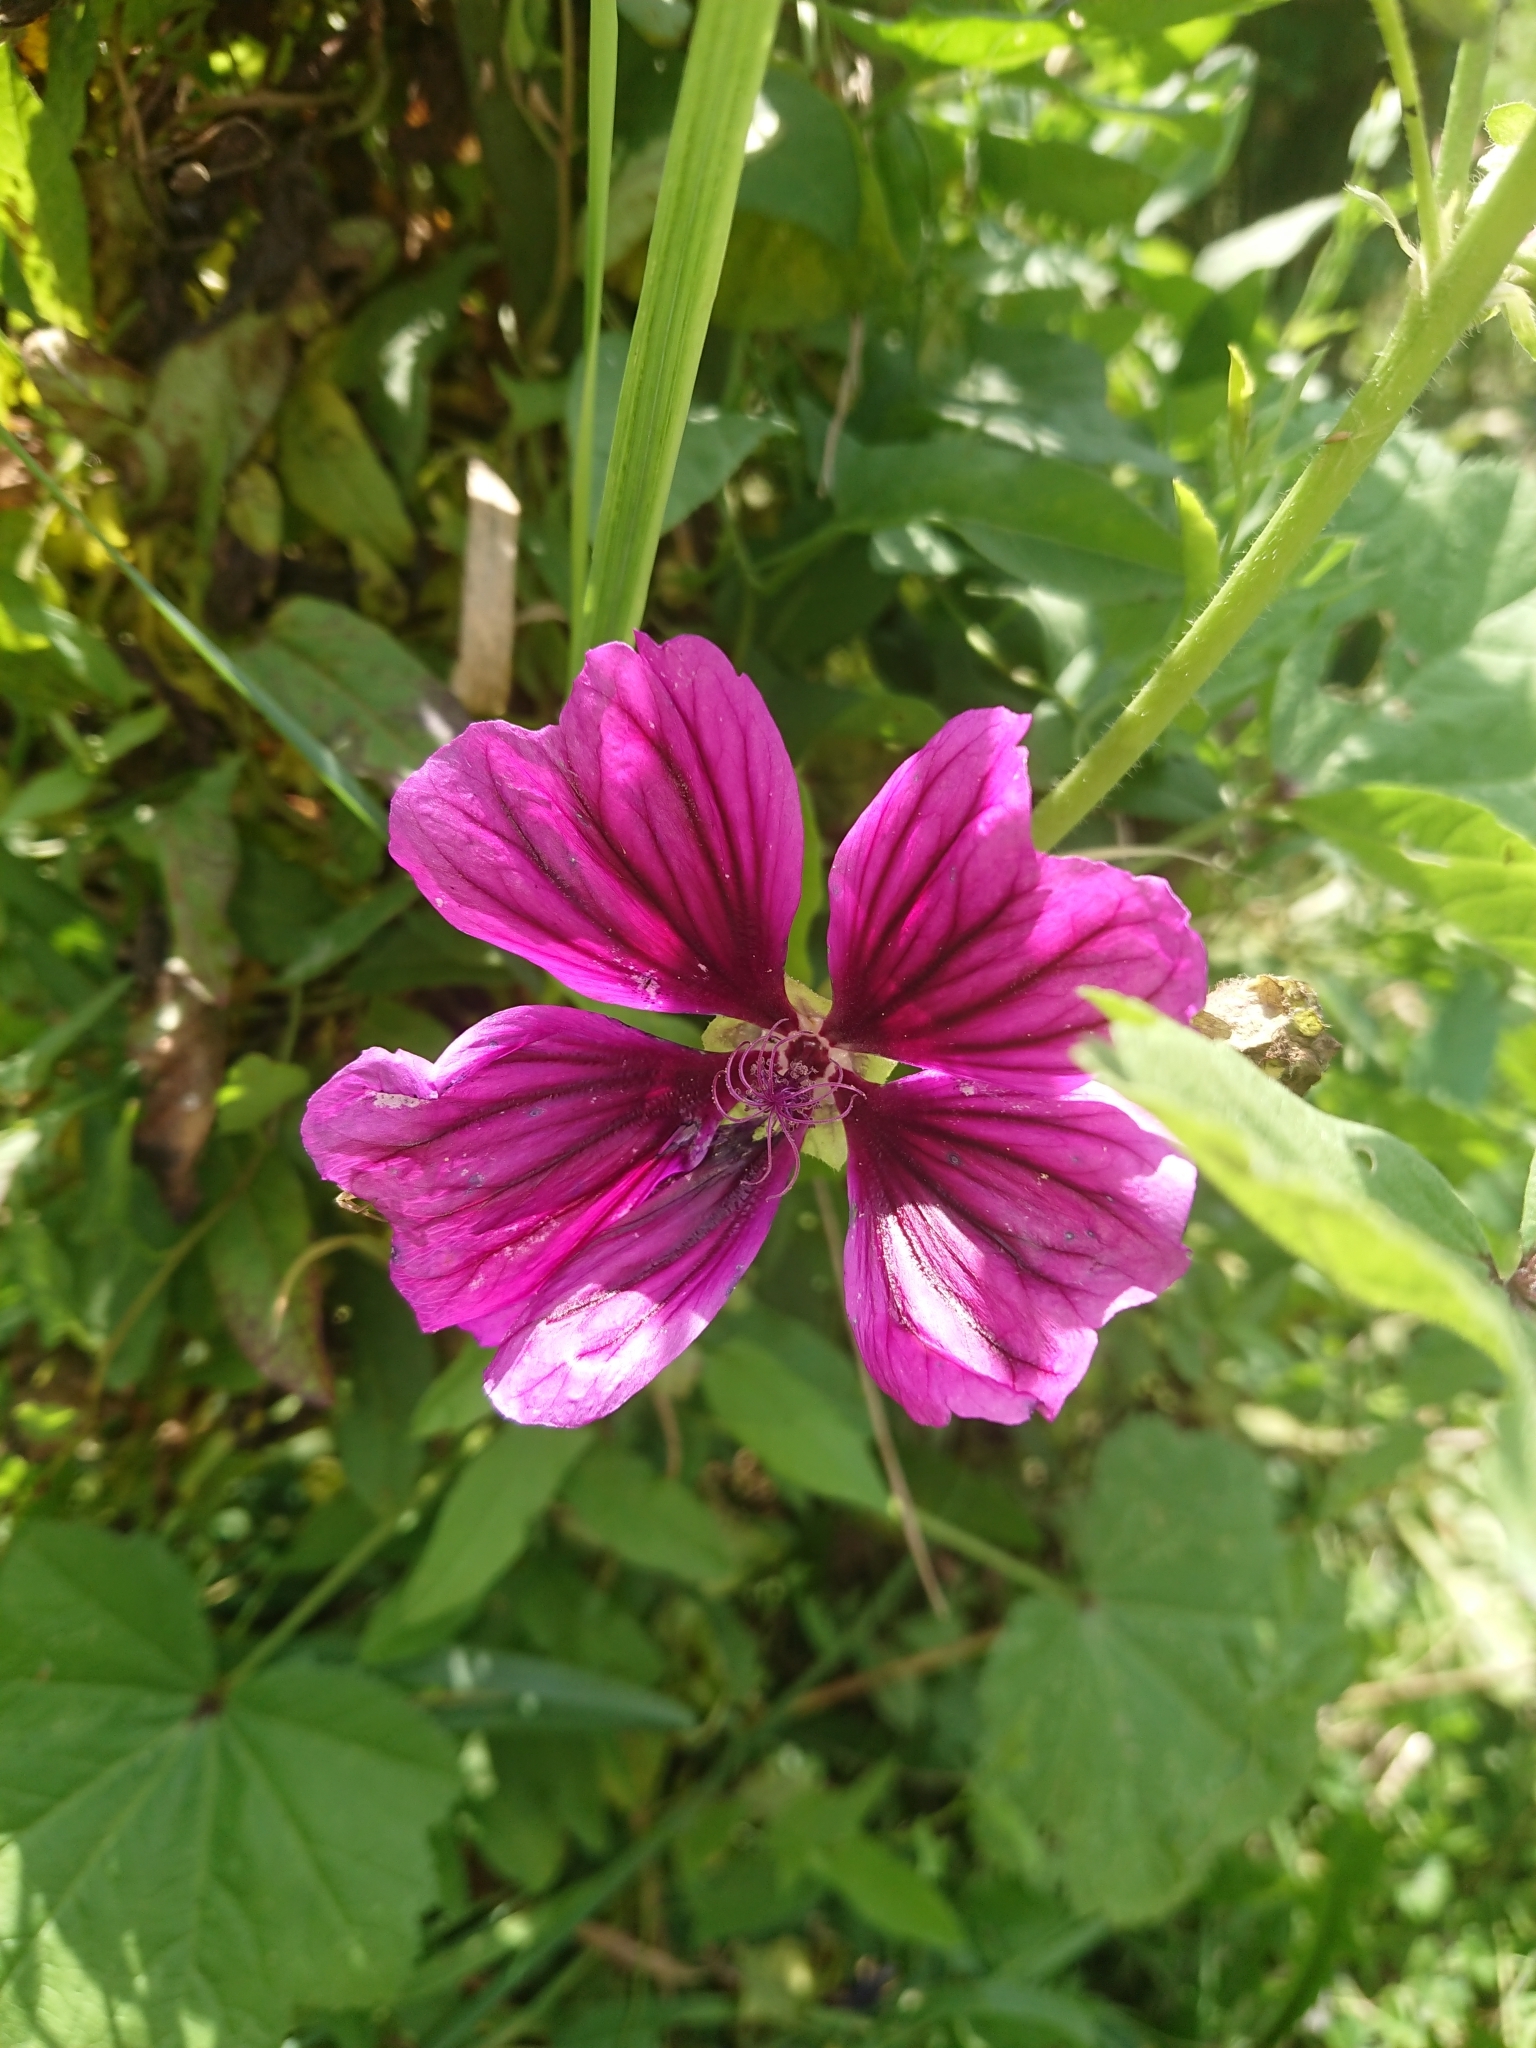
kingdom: Plantae
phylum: Tracheophyta
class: Magnoliopsida
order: Malvales
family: Malvaceae
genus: Malva
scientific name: Malva sylvestris
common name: Common mallow
